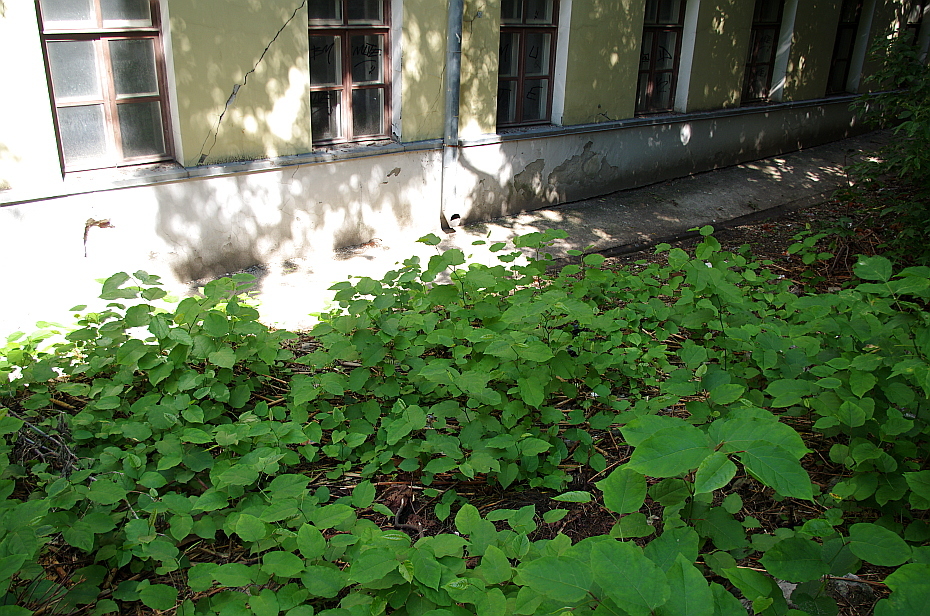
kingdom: Plantae
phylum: Tracheophyta
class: Magnoliopsida
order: Caryophyllales
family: Polygonaceae
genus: Reynoutria
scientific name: Reynoutria bohemica
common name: Bohemian knotweed
